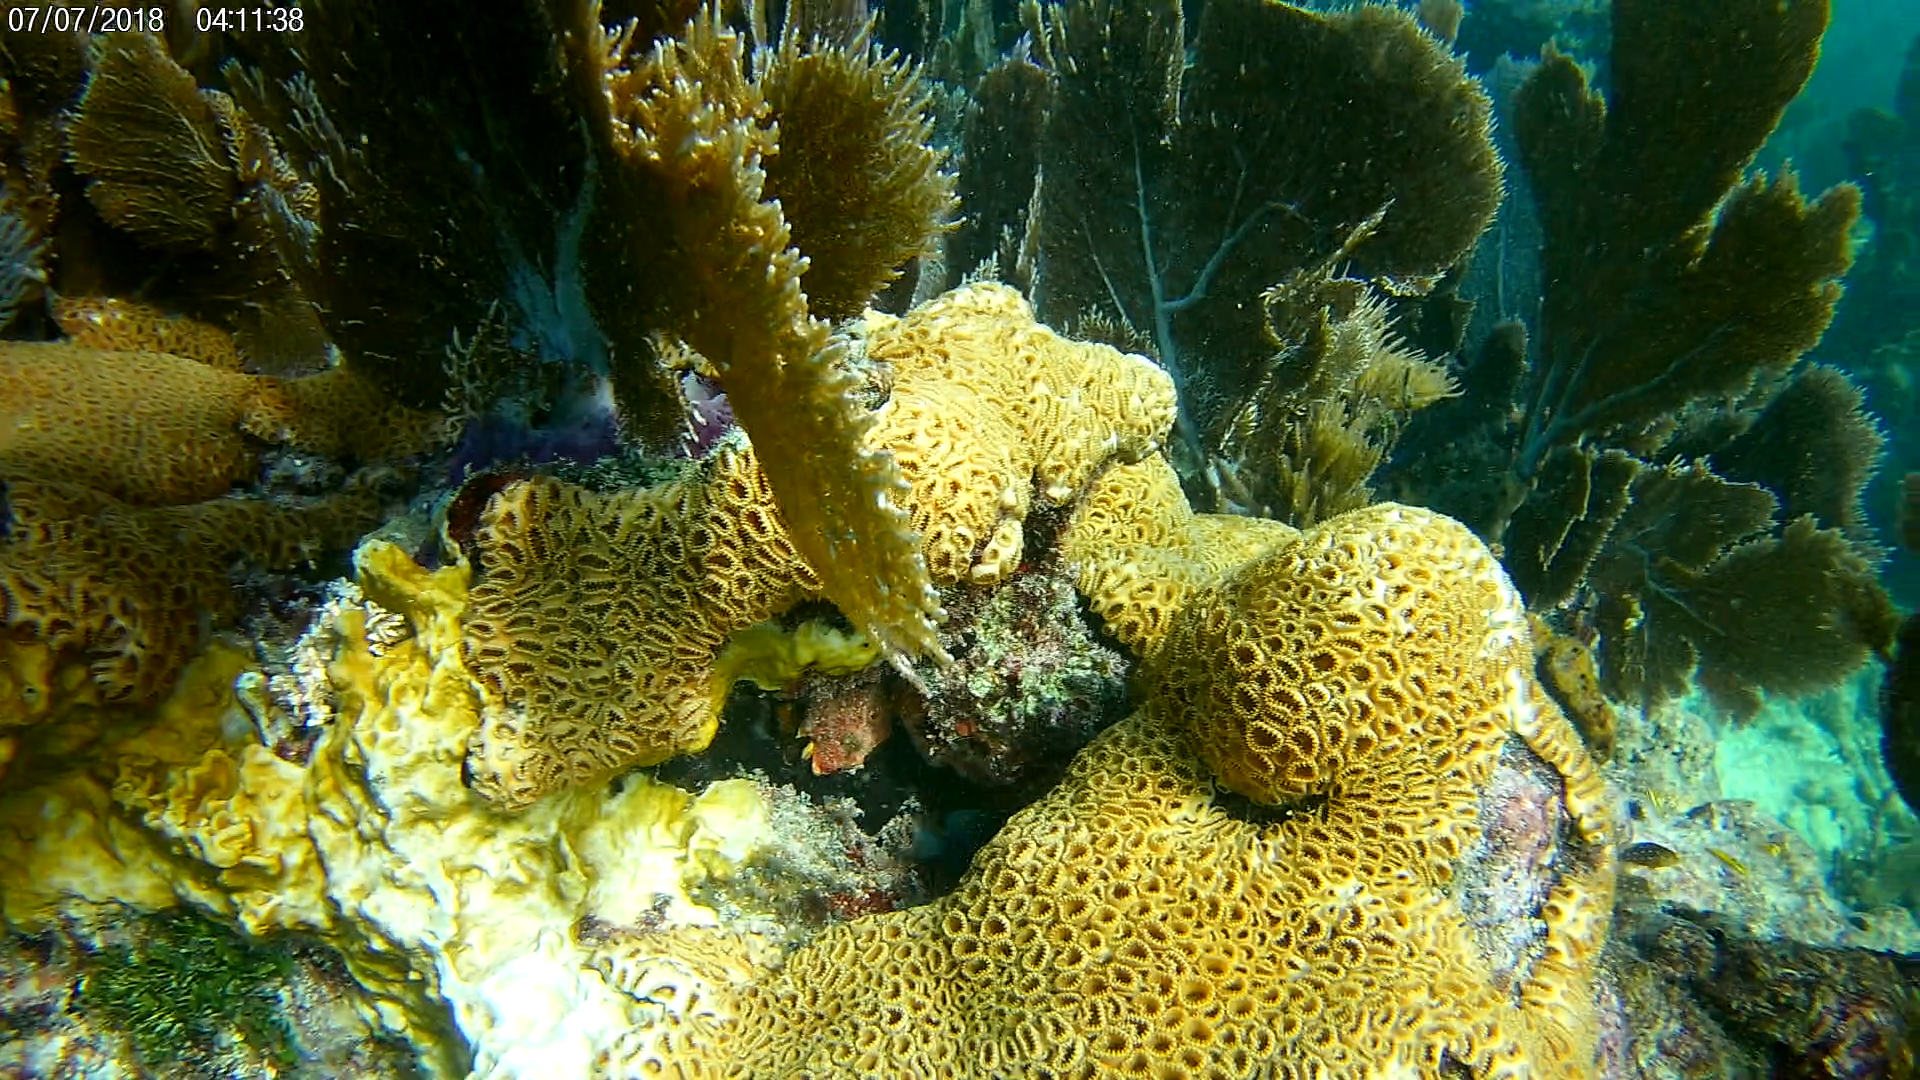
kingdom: Animalia
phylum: Cnidaria
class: Anthozoa
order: Zoantharia
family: Sphenopidae
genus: Palythoa
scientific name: Palythoa caribaeorum
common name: Encrusting colonial anemone
